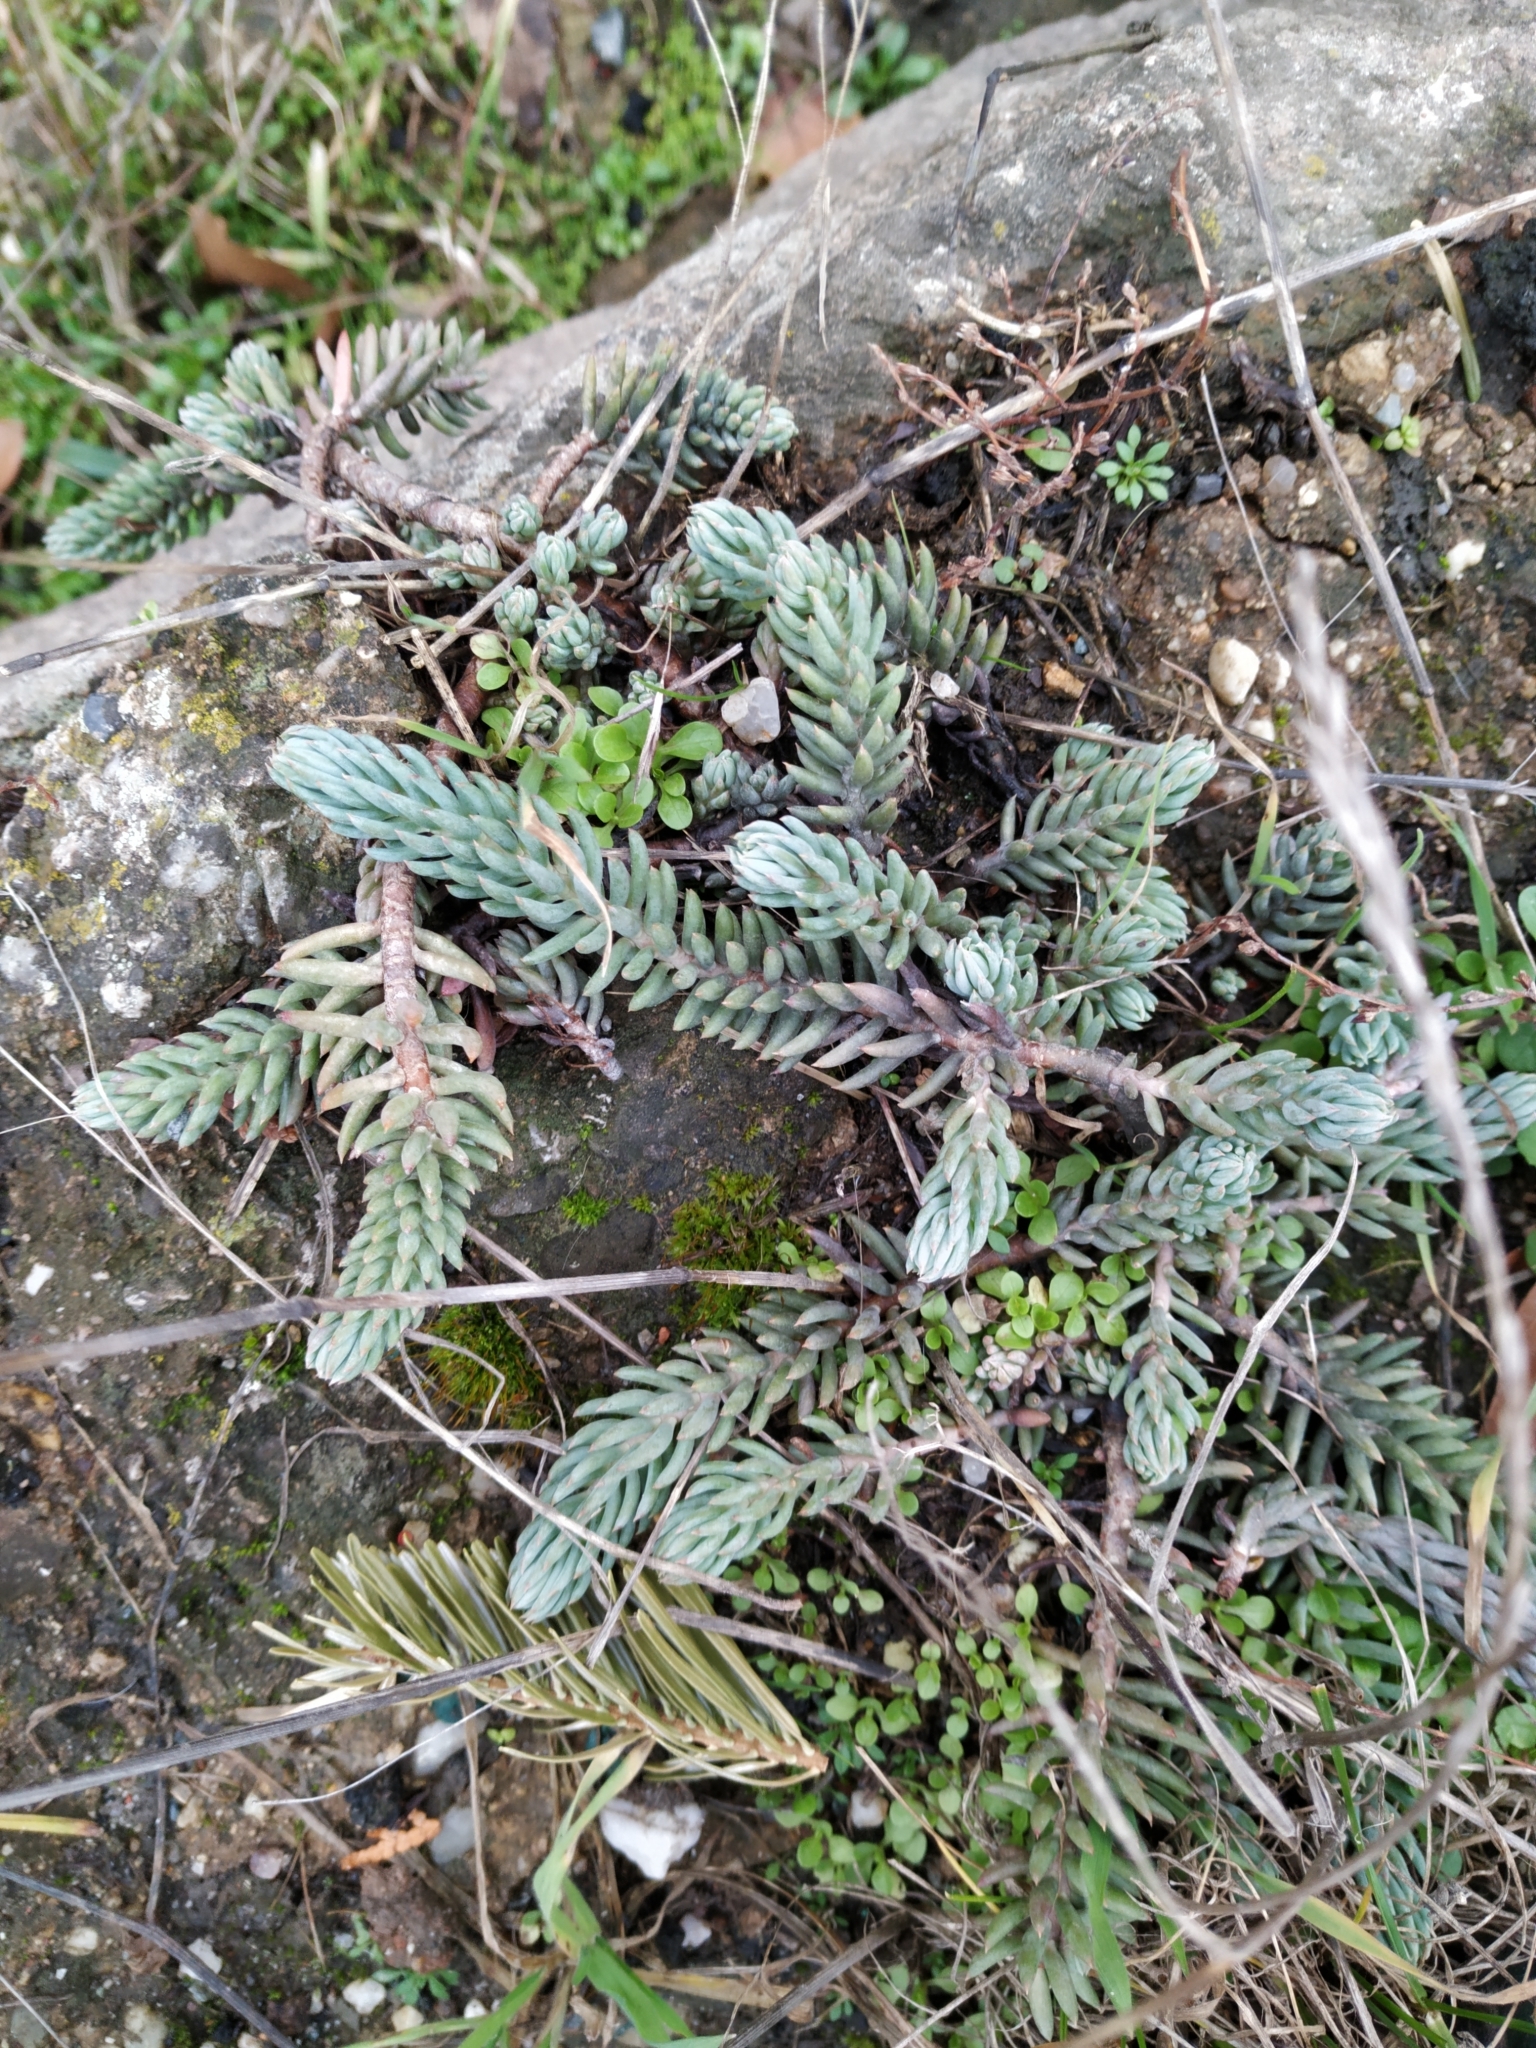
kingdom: Plantae
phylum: Tracheophyta
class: Magnoliopsida
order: Saxifragales
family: Crassulaceae
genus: Petrosedum
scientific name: Petrosedum rupestre
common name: Jenny's stonecrop
